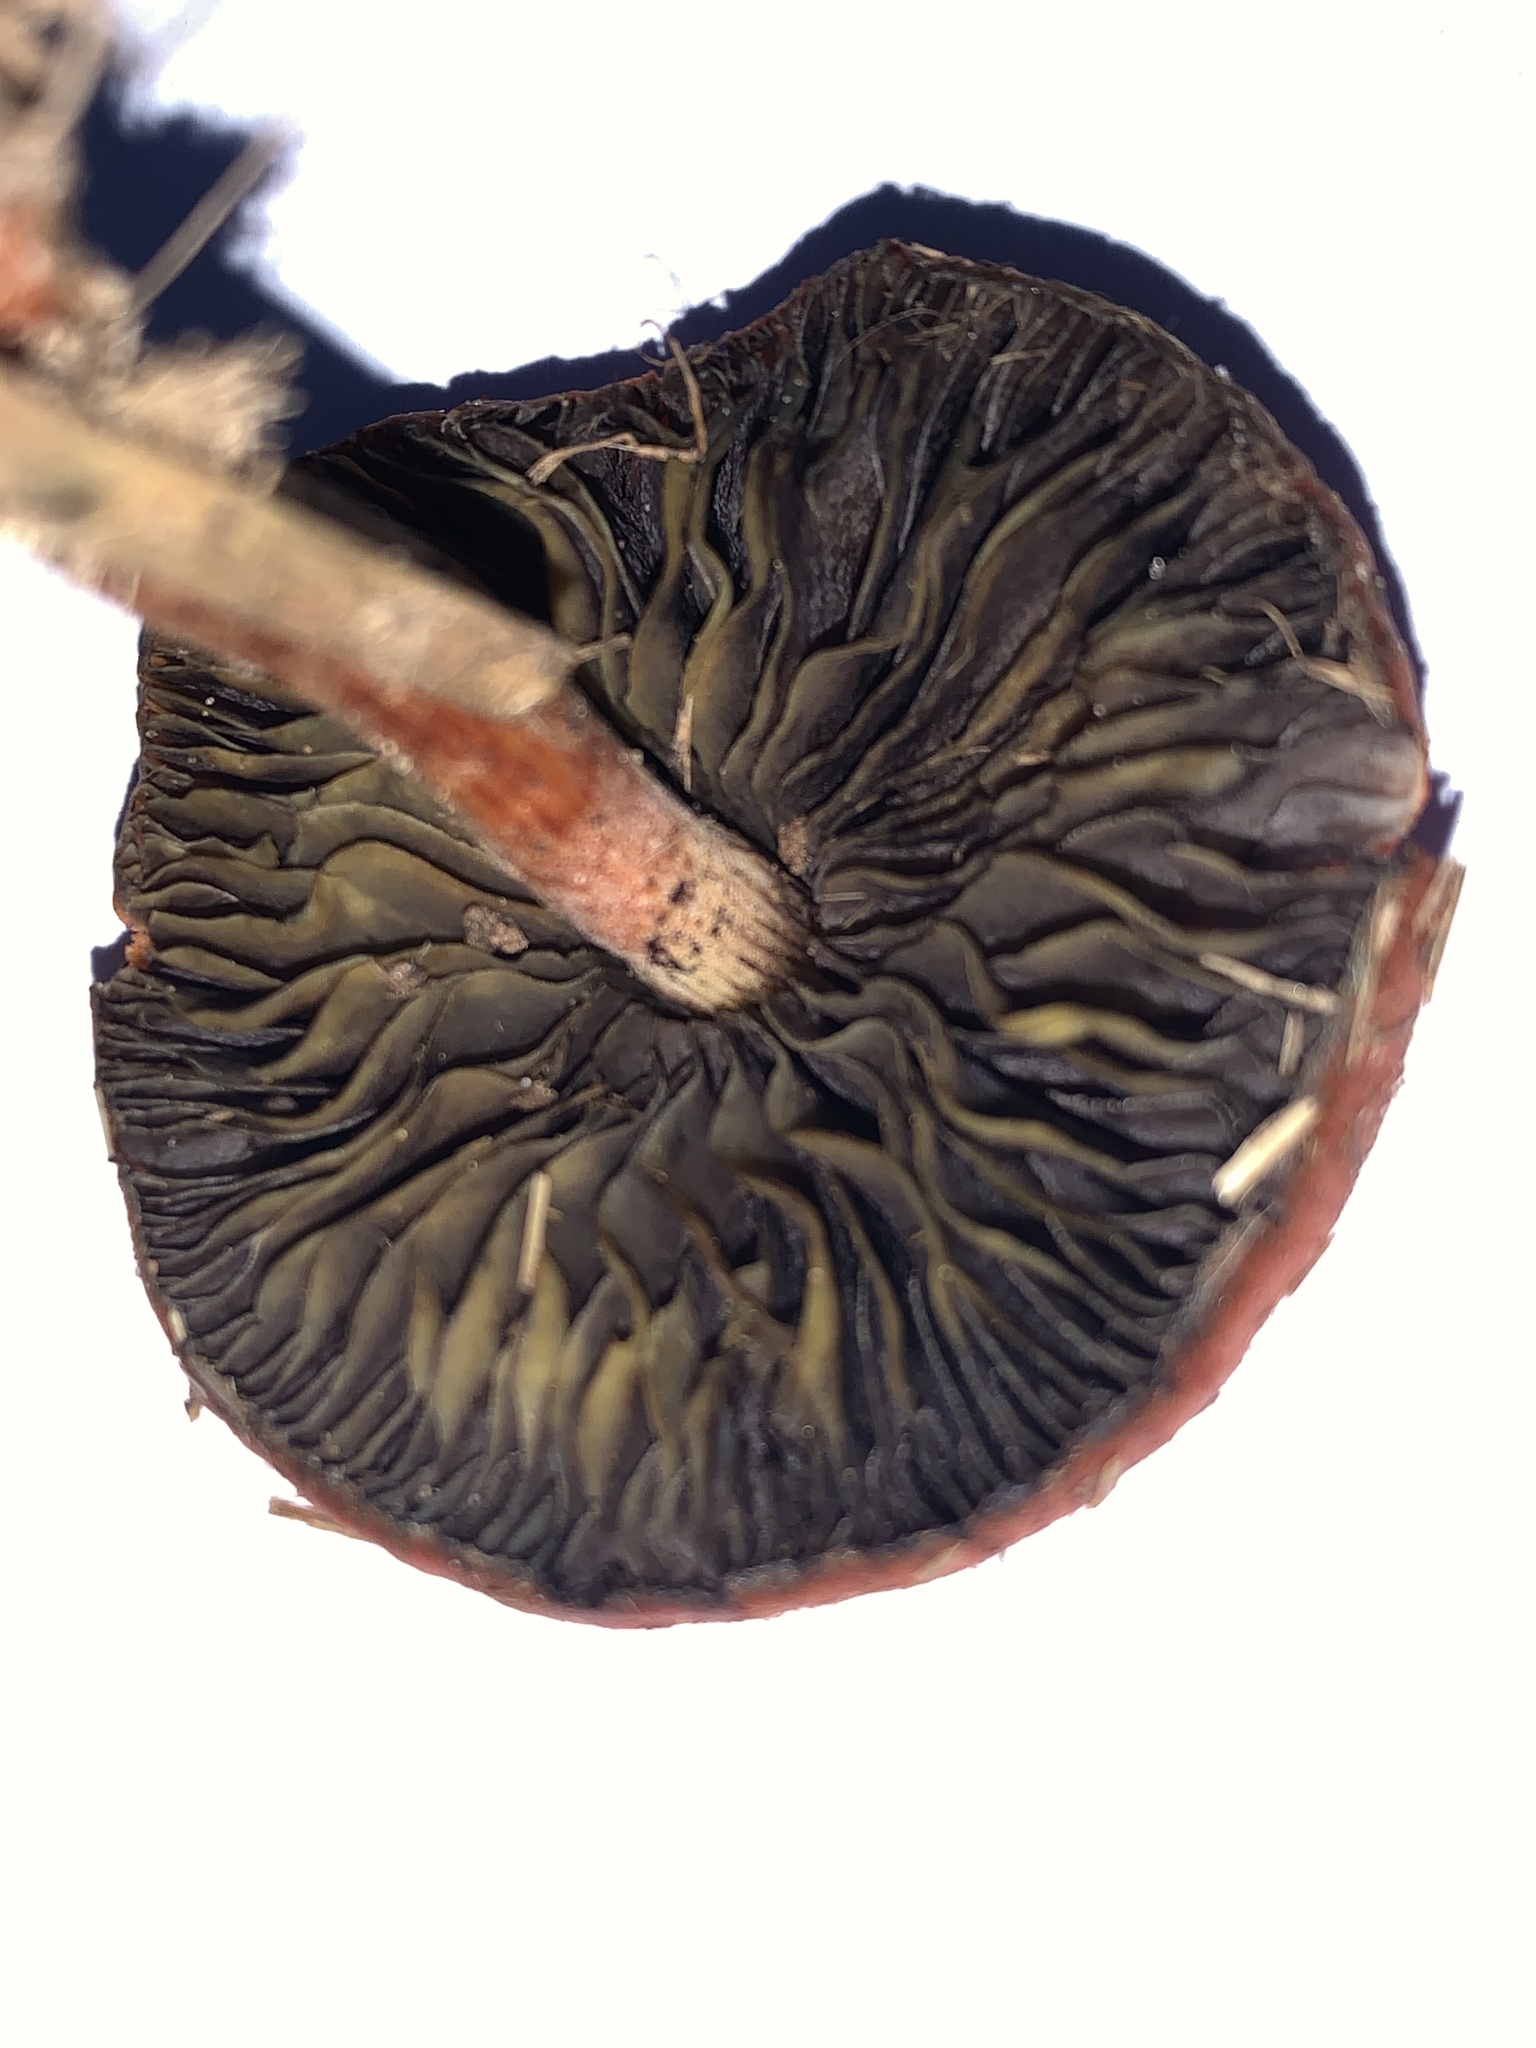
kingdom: Fungi
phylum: Basidiomycota
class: Agaricomycetes
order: Agaricales
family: Strophariaceae
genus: Leratiomyces
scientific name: Leratiomyces ceres
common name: Redlead roundhead
